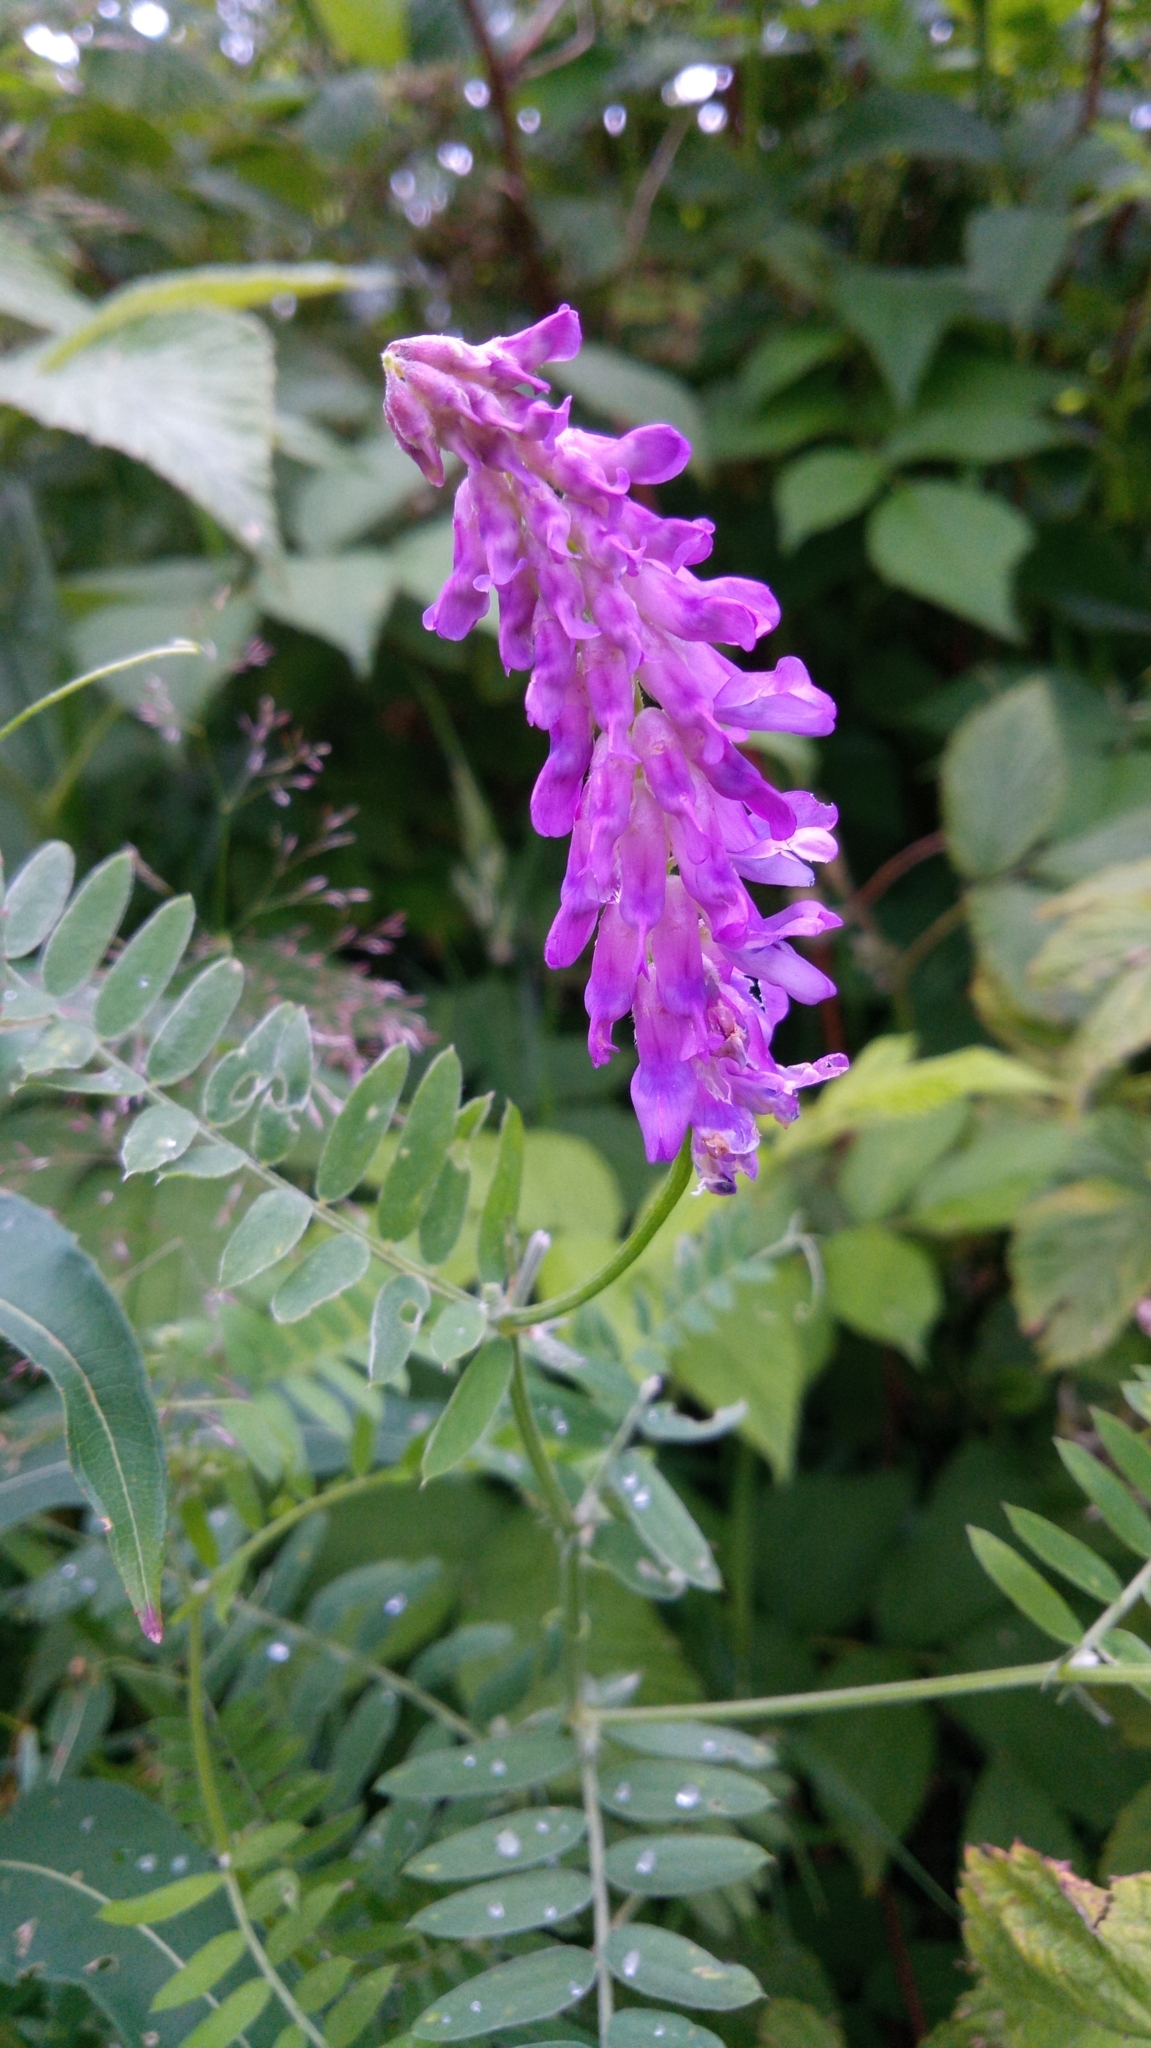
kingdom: Plantae
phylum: Tracheophyta
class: Magnoliopsida
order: Fabales
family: Fabaceae
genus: Vicia
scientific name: Vicia cracca
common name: Bird vetch
